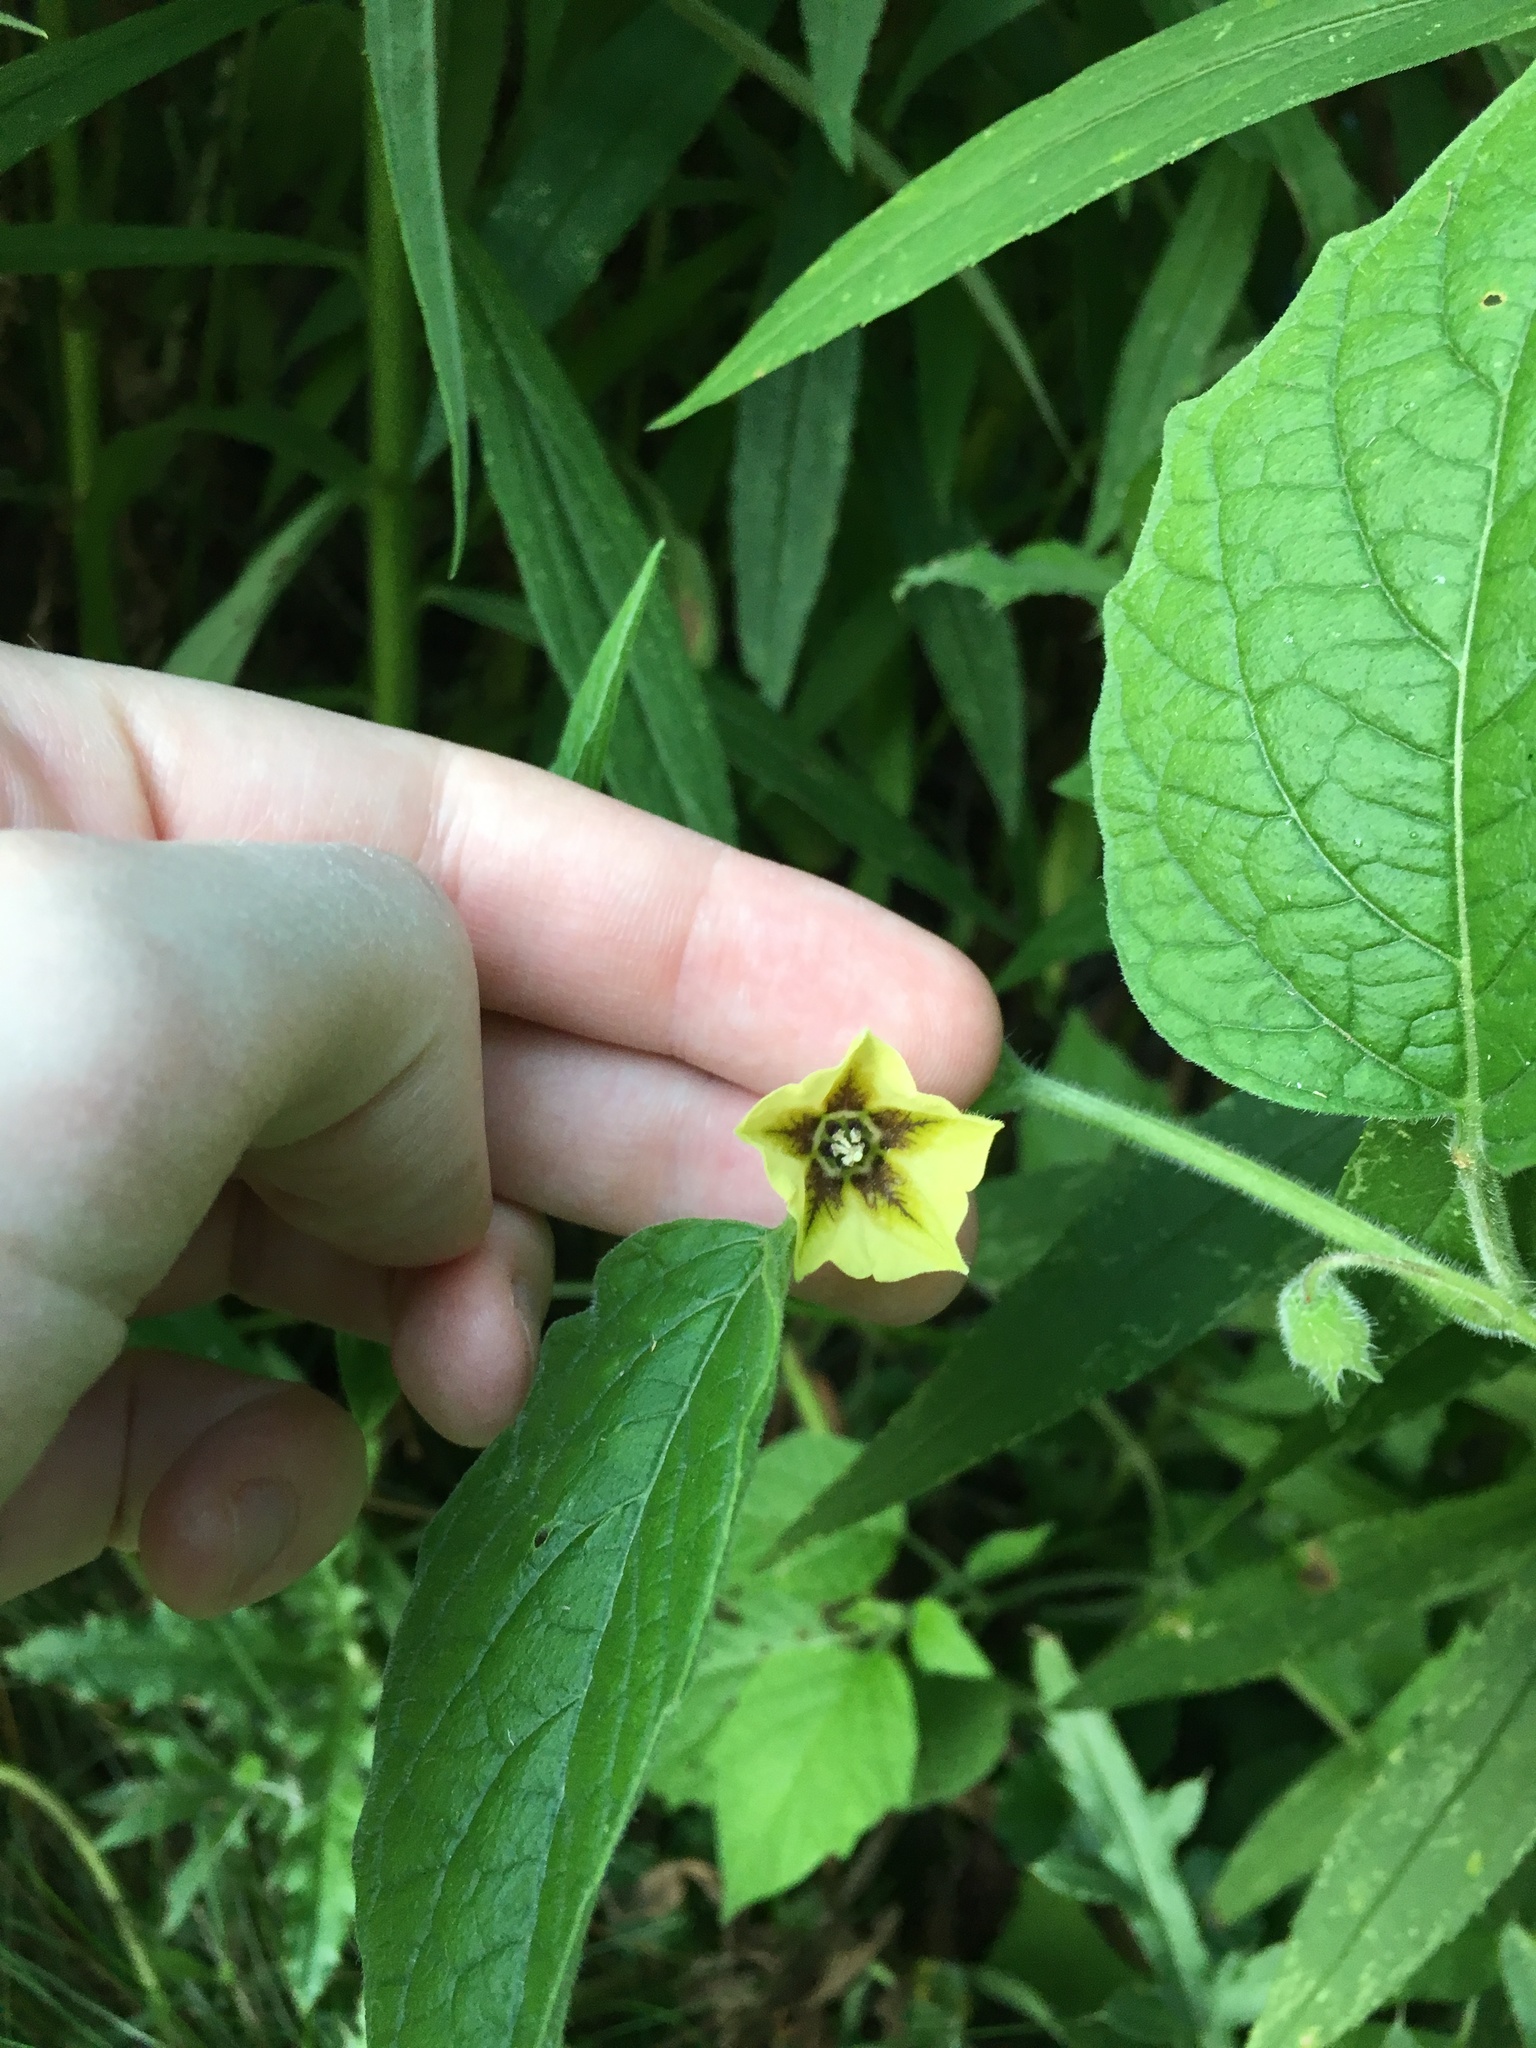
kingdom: Plantae
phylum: Tracheophyta
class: Magnoliopsida
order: Solanales
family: Solanaceae
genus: Physalis
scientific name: Physalis heterophylla
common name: Clammy ground-cherry
